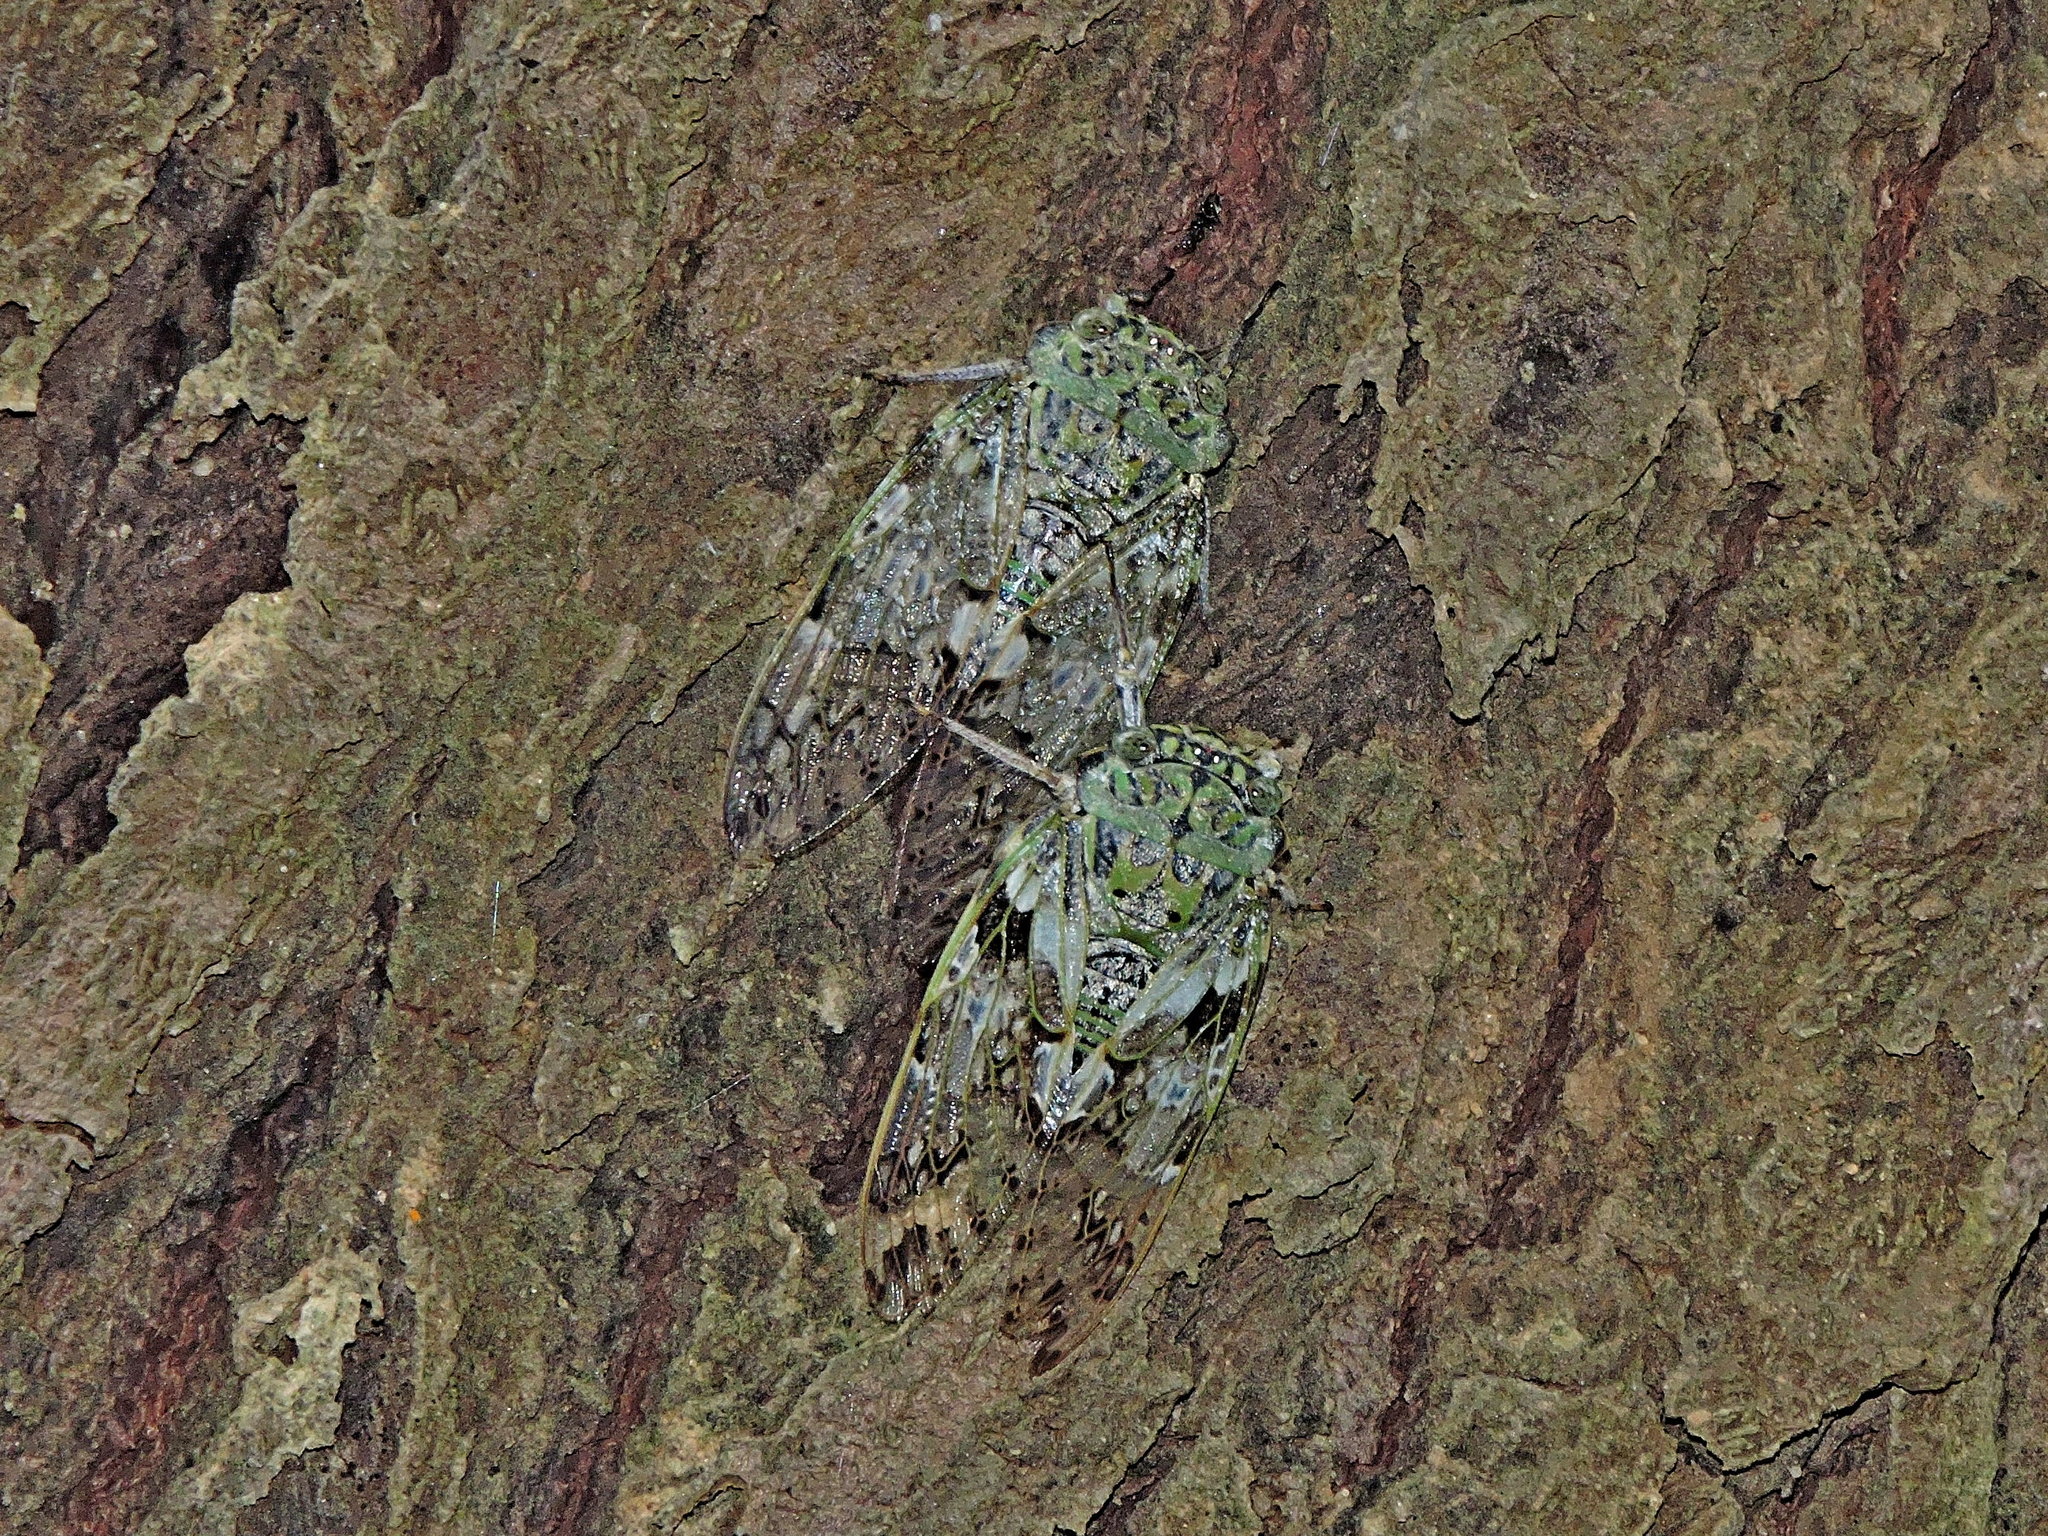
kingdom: Animalia
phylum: Arthropoda
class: Insecta
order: Hemiptera
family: Cicadidae
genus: Platypleura
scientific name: Platypleura takasagona
